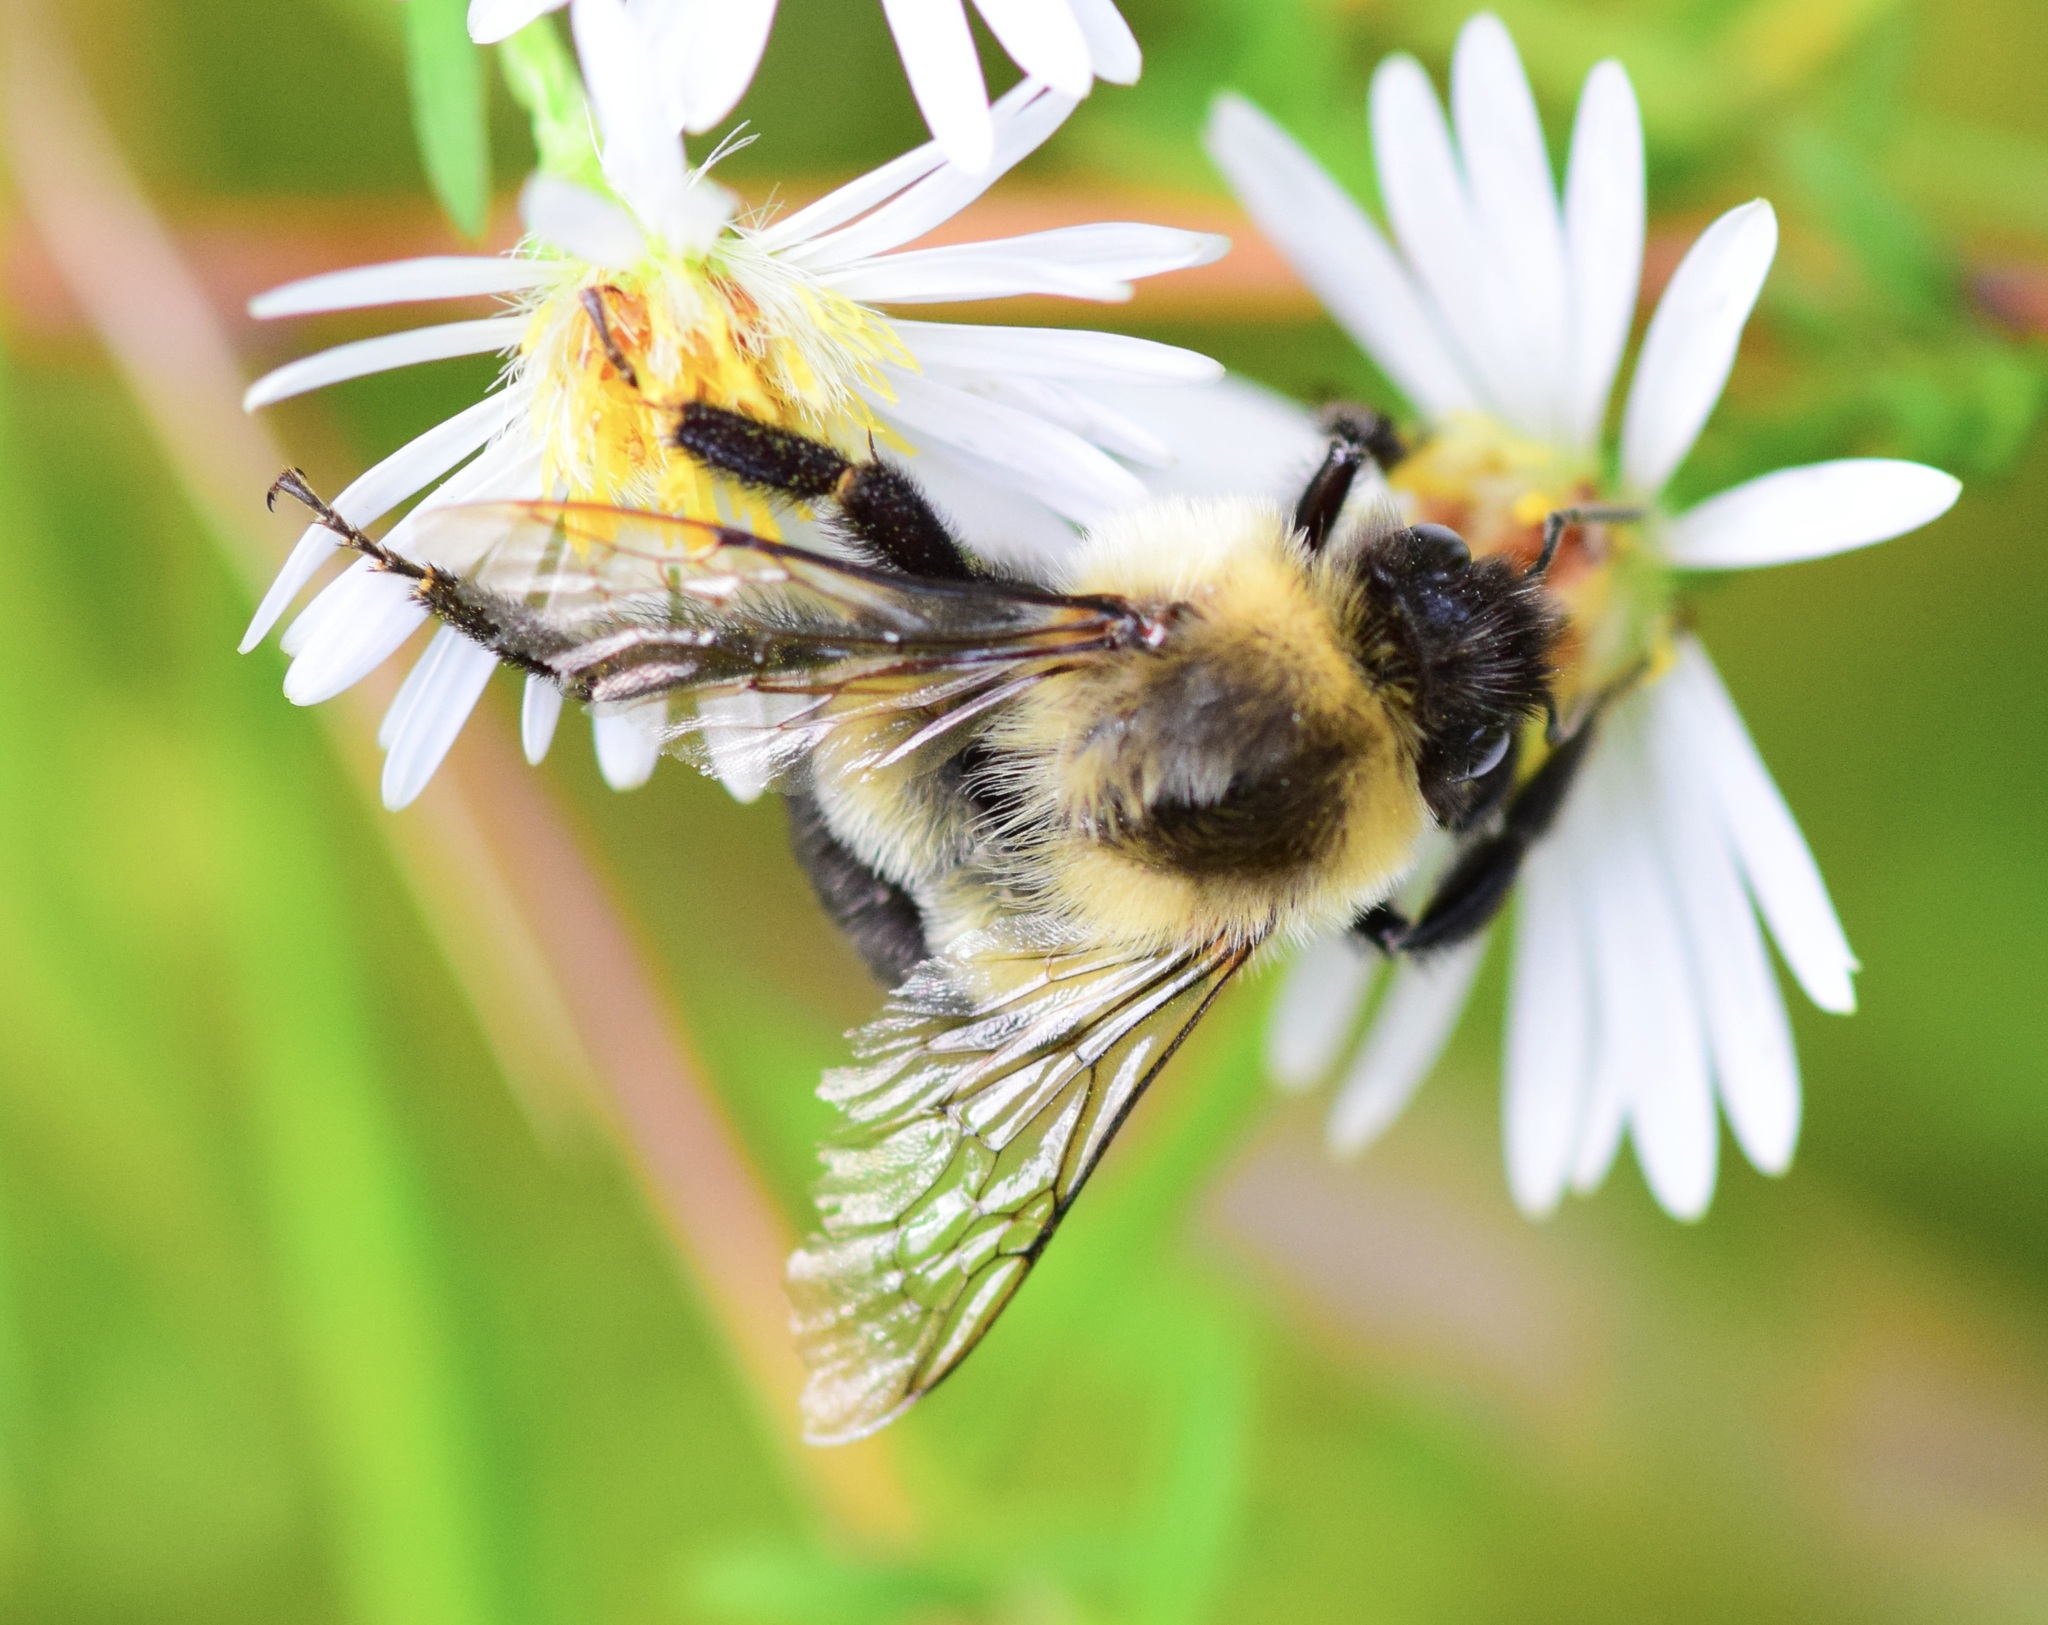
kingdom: Animalia
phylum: Arthropoda
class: Insecta
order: Hymenoptera
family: Apidae
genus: Bombus
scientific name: Bombus impatiens
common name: Common eastern bumble bee
